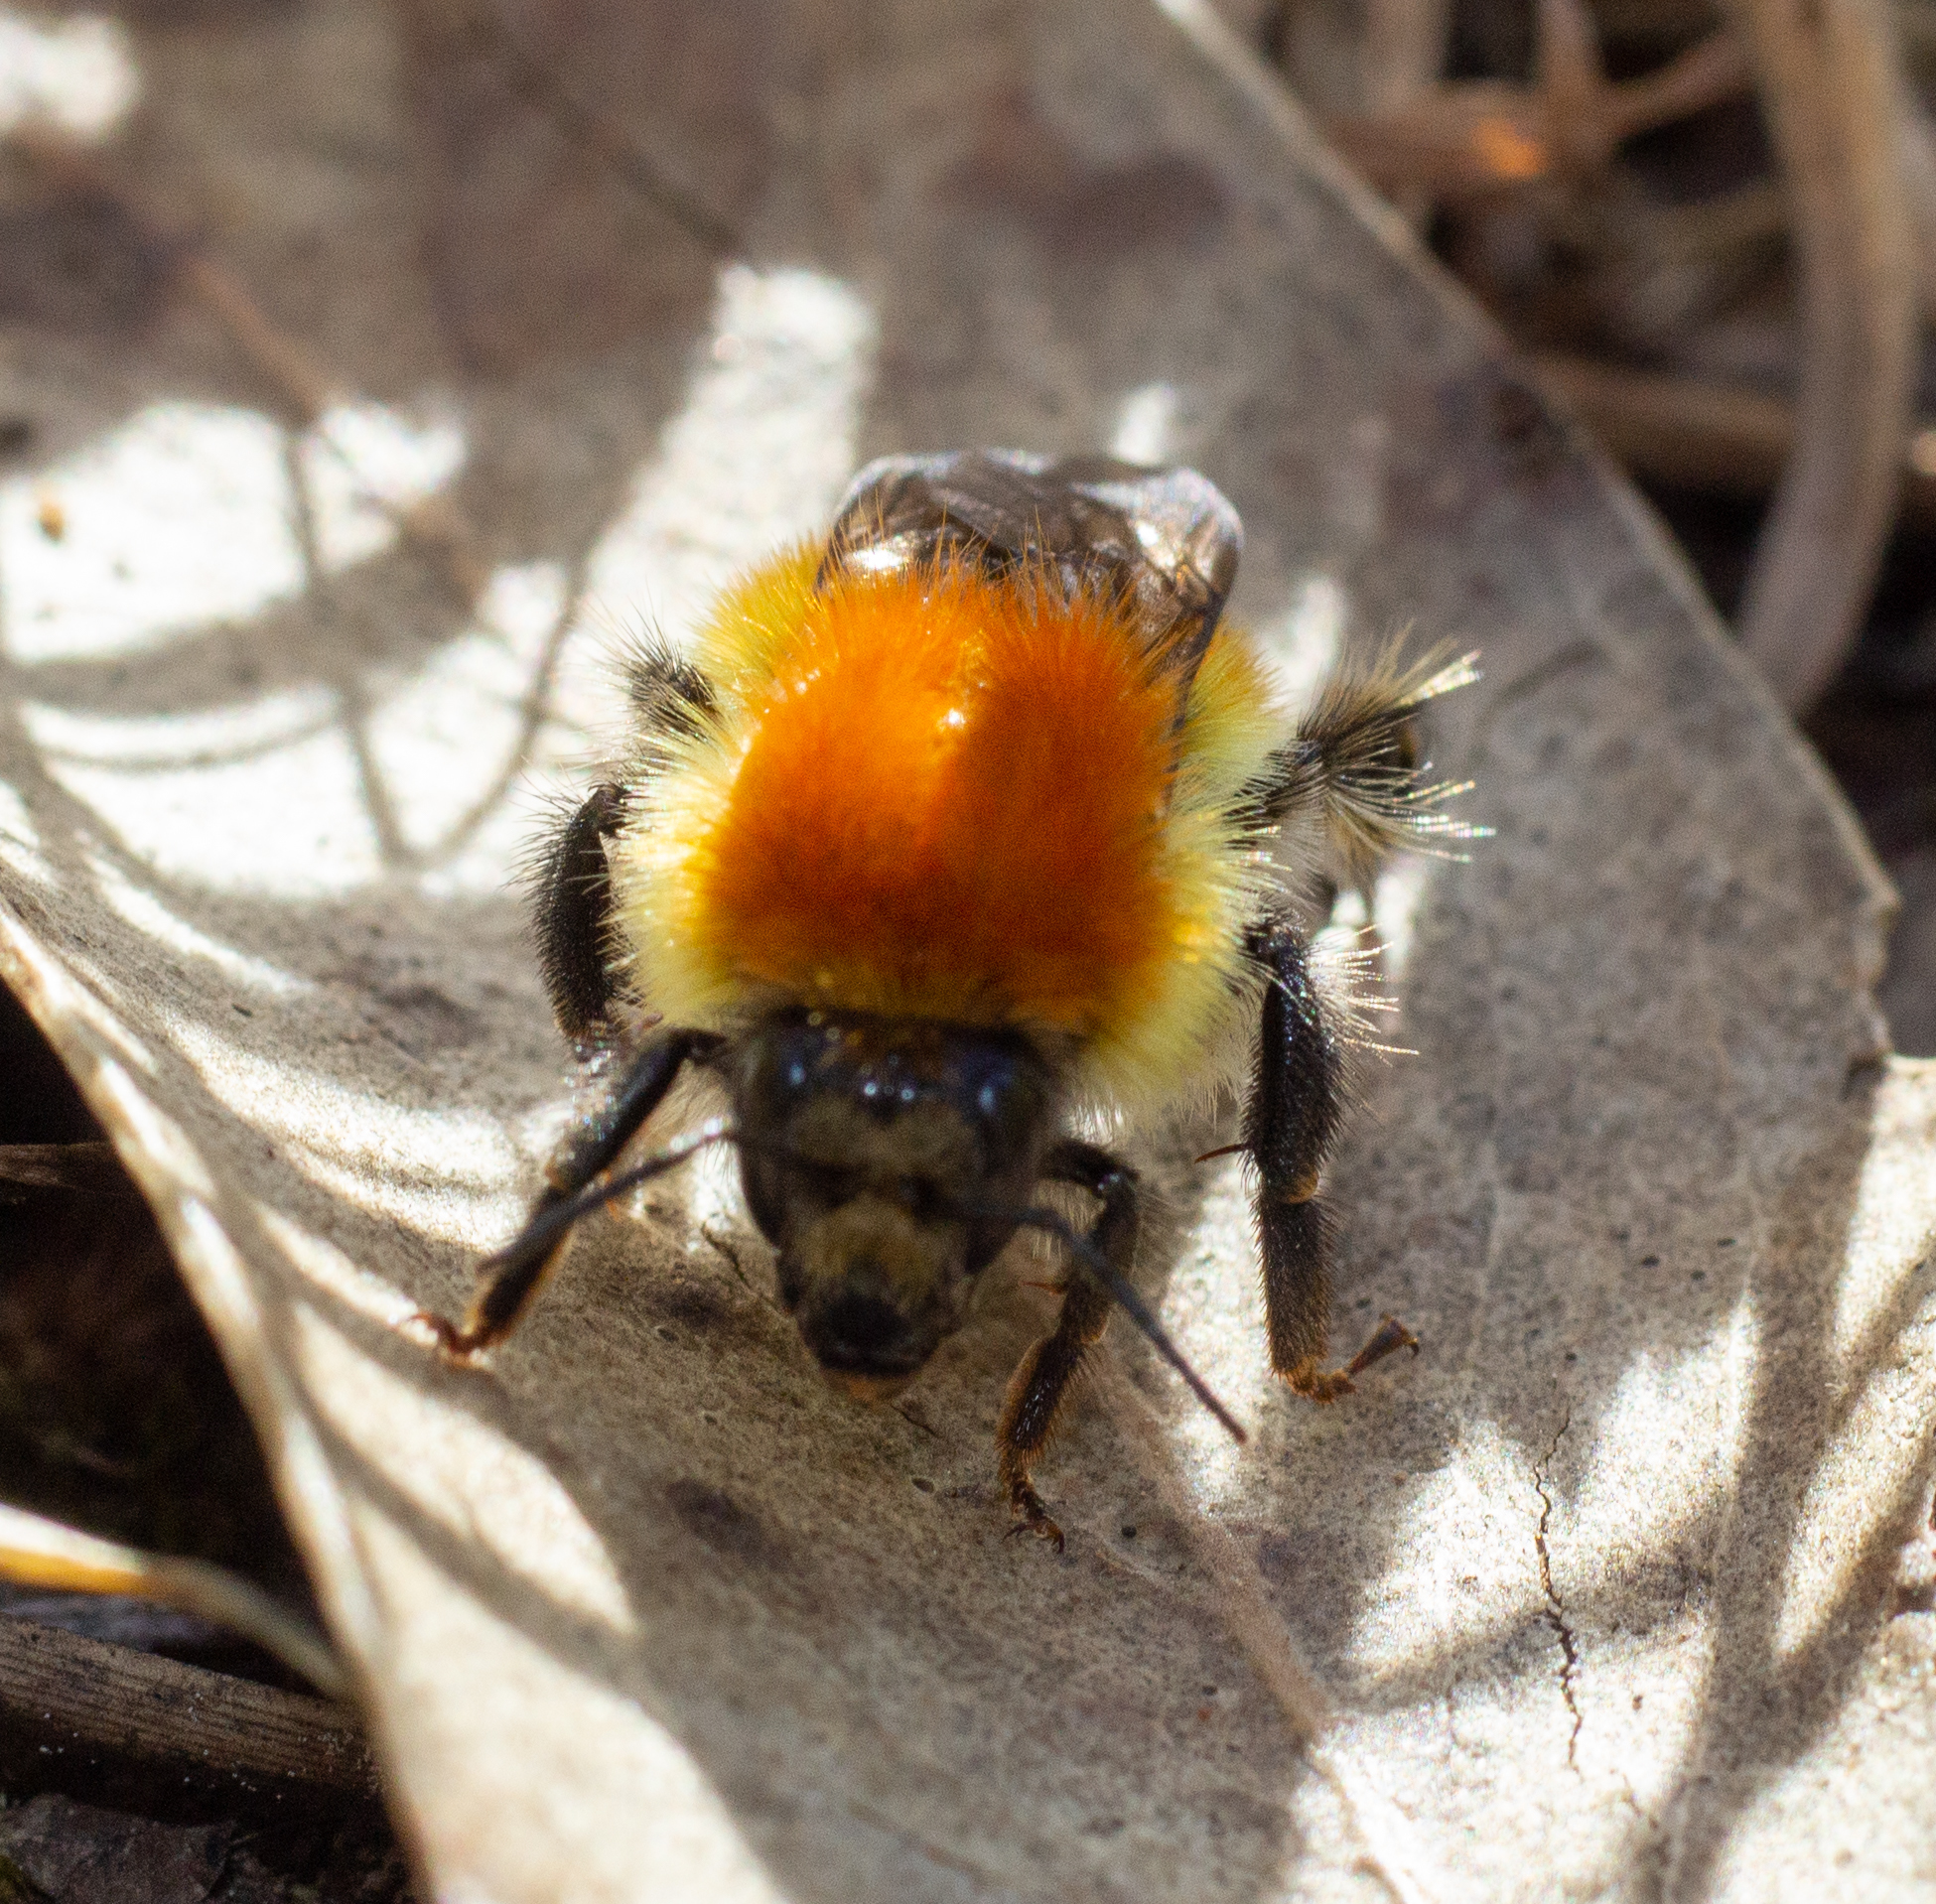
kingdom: Animalia
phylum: Arthropoda
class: Insecta
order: Hymenoptera
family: Apidae
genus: Bombus
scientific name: Bombus pascuorum
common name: Common carder bee
